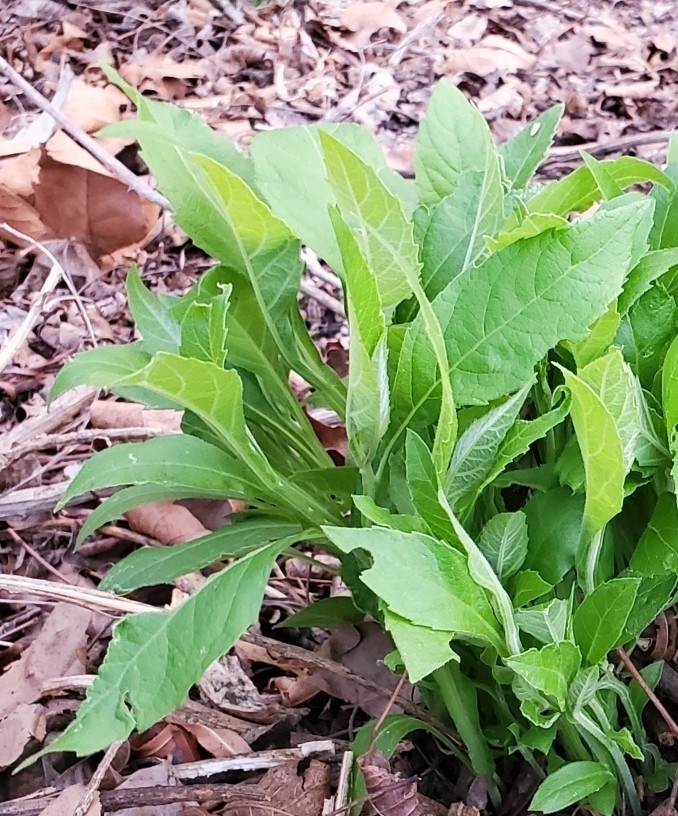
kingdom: Plantae
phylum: Tracheophyta
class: Magnoliopsida
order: Asterales
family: Asteraceae
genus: Verbesina
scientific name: Verbesina virginica
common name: Frostweed
